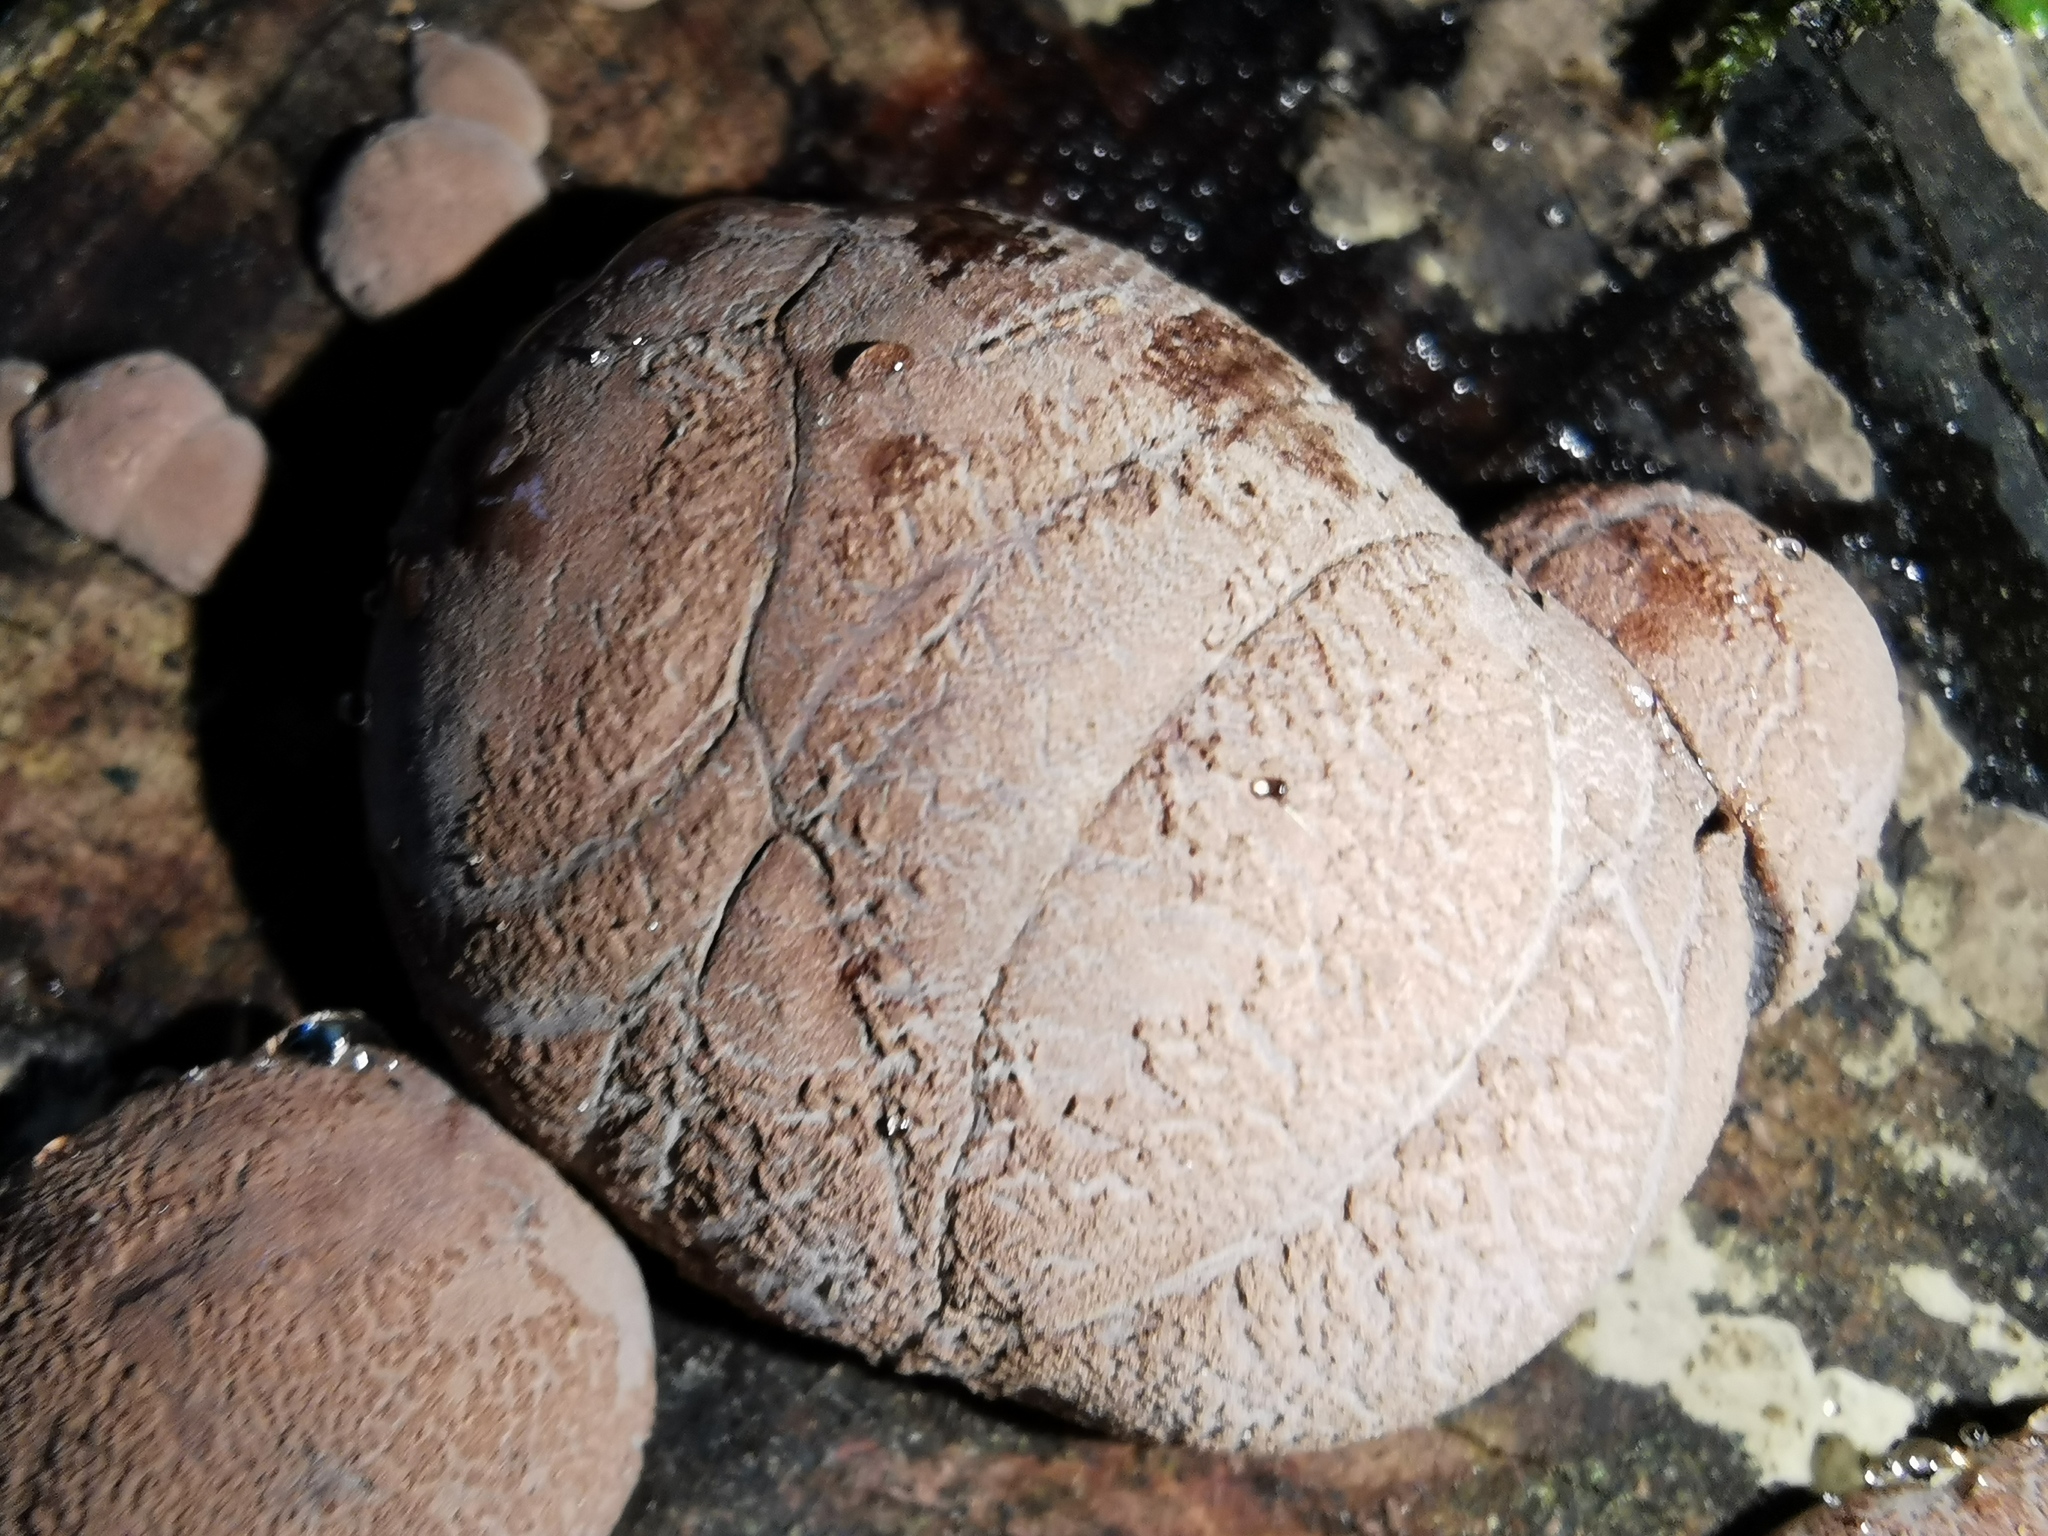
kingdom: Fungi
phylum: Ascomycota
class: Sordariomycetes
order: Xylariales
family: Hypoxylaceae
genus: Daldinia
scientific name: Daldinia
